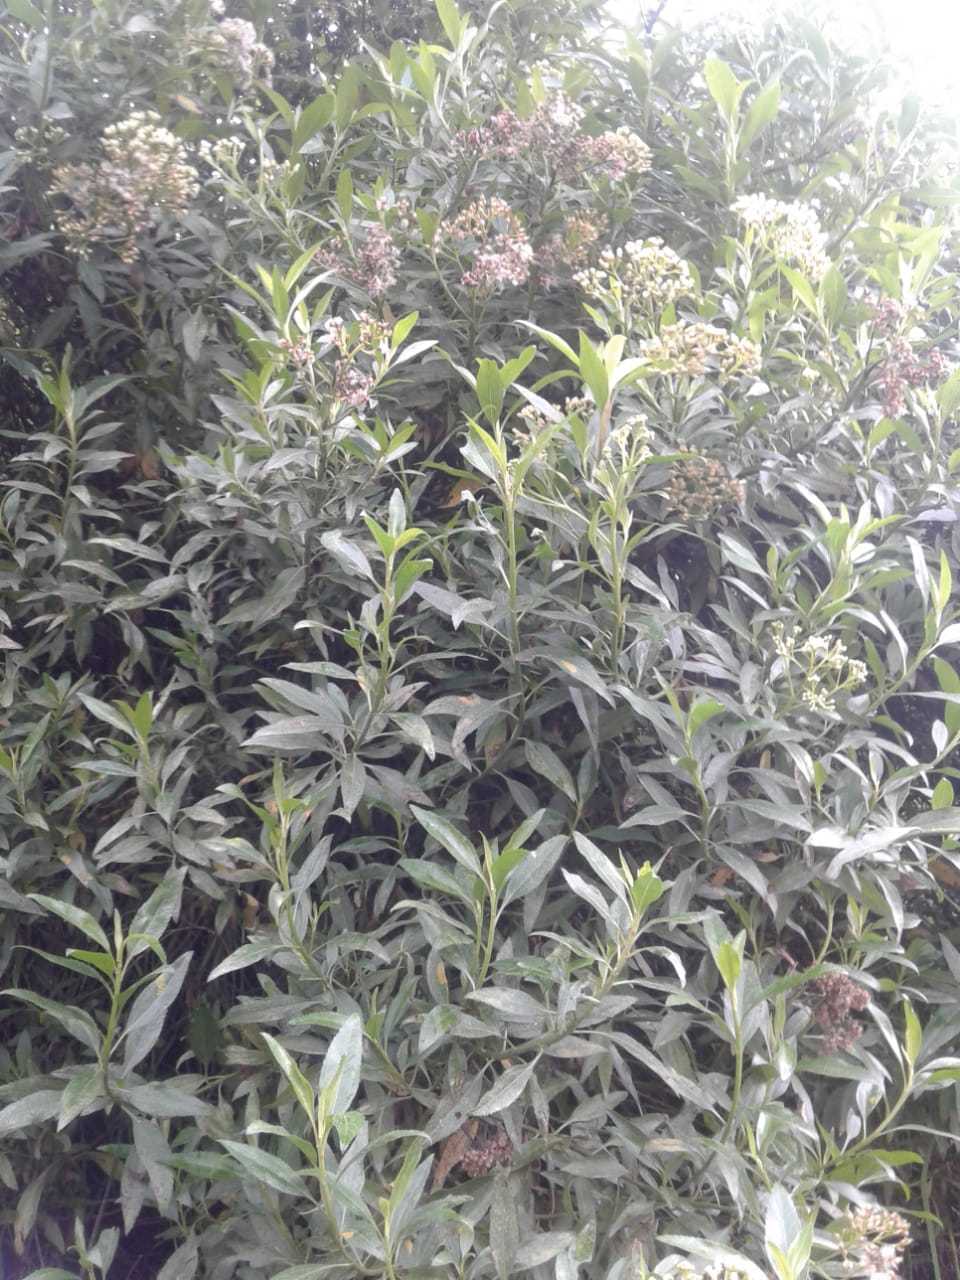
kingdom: Plantae
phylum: Tracheophyta
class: Magnoliopsida
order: Asterales
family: Asteraceae
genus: Baccharis
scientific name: Baccharis latifolia
